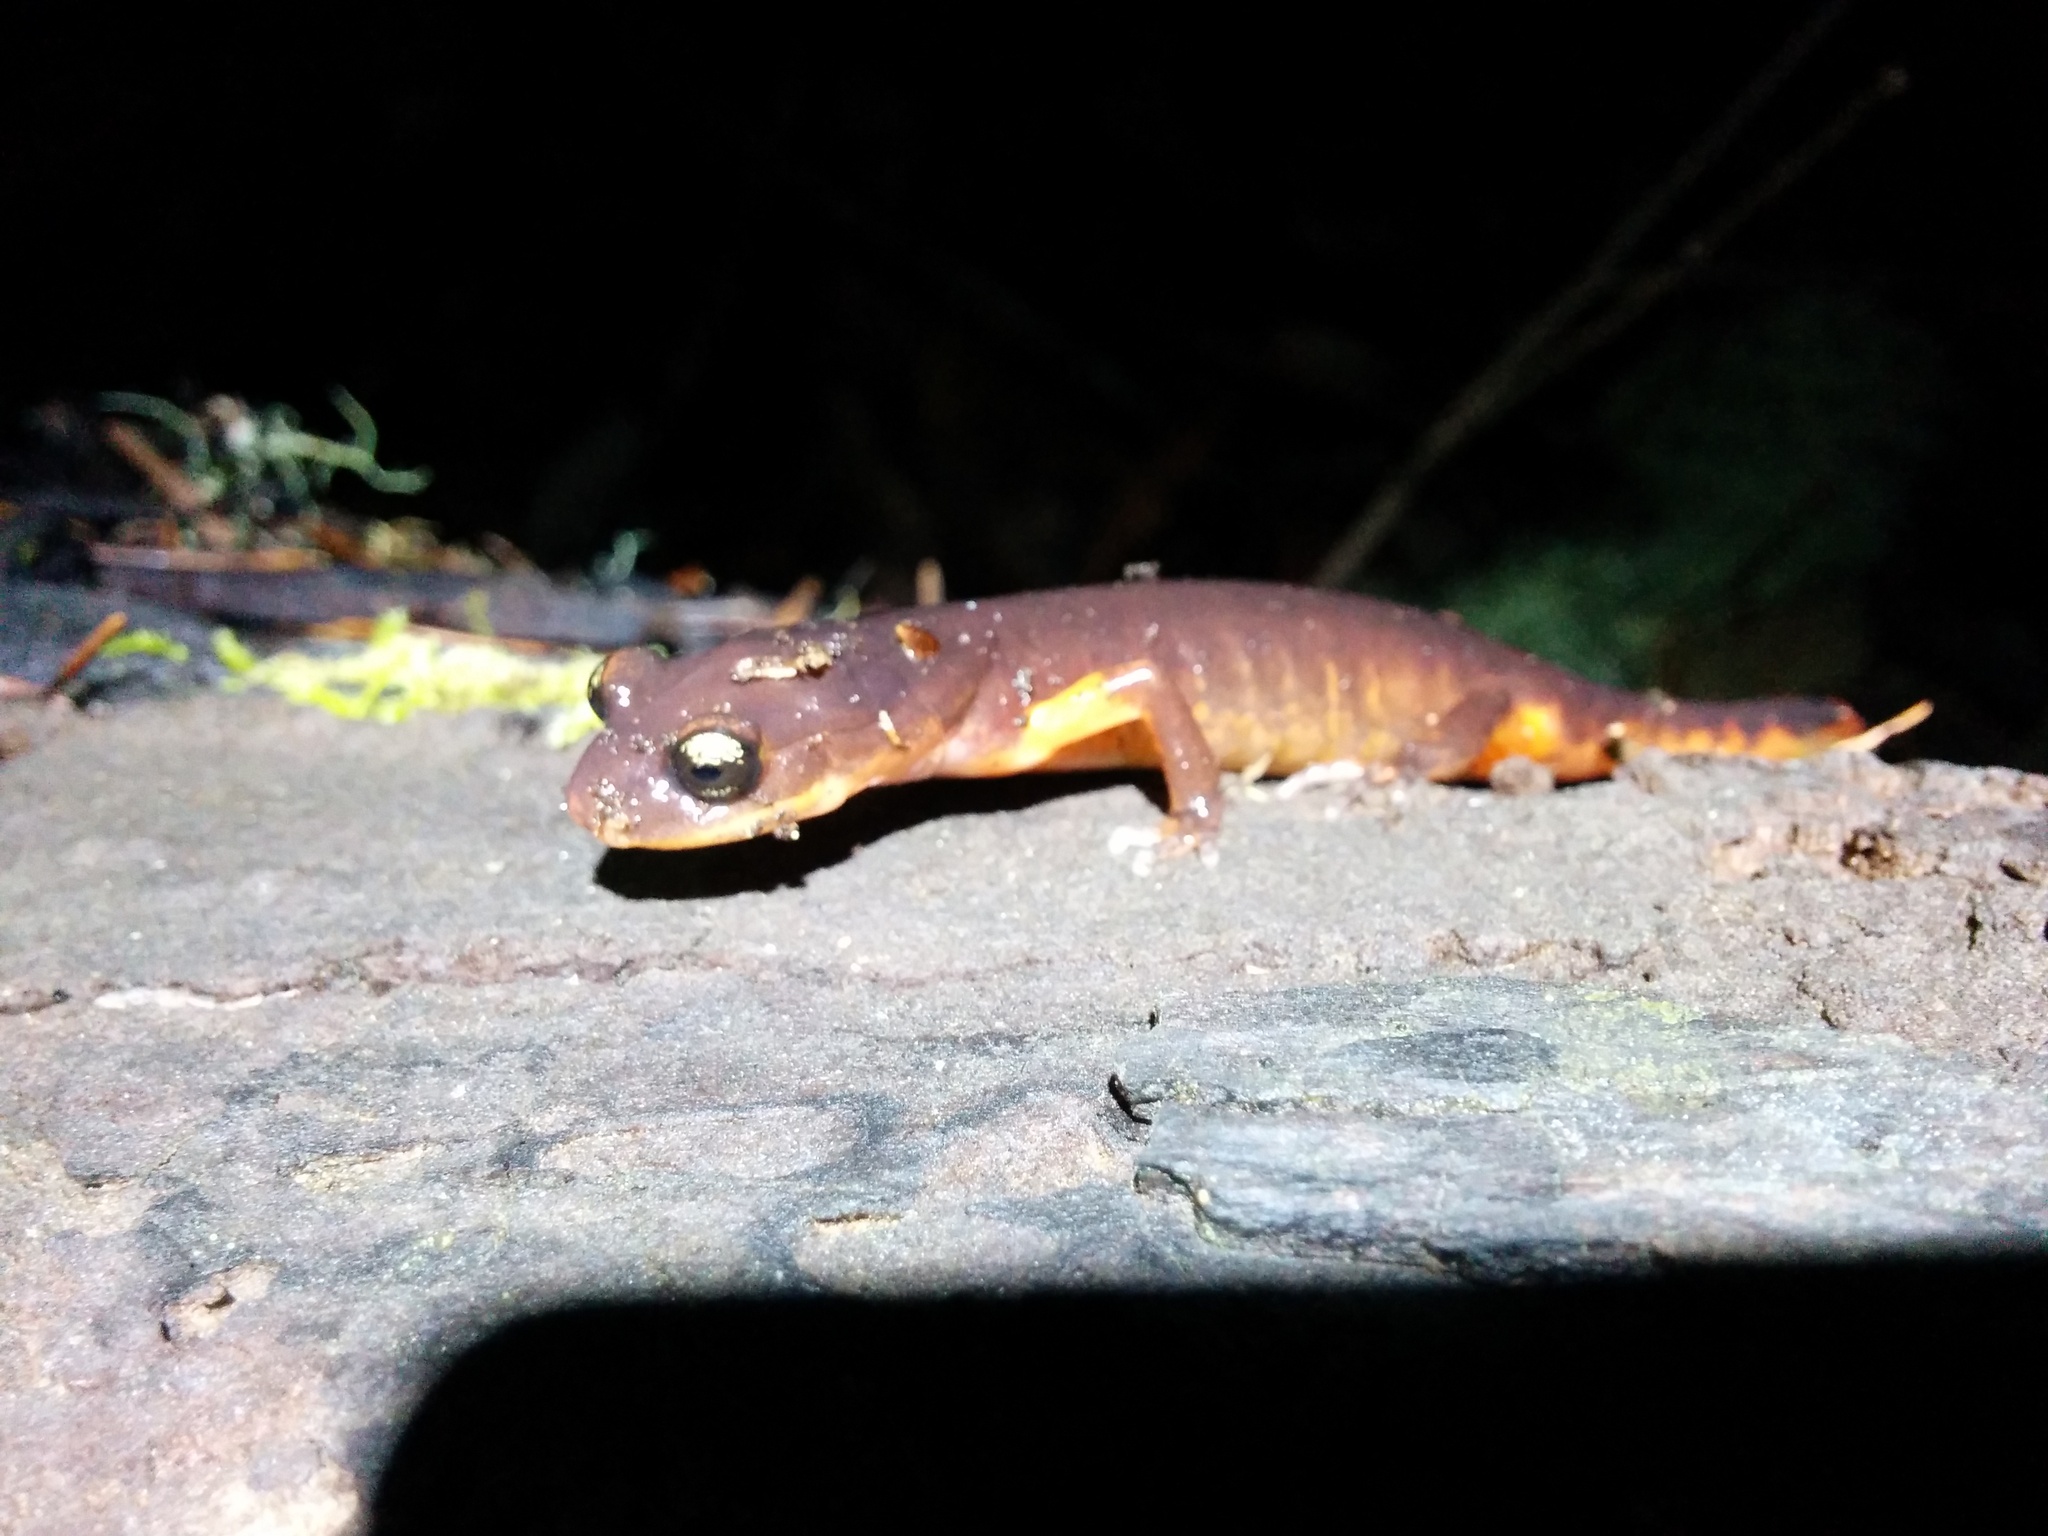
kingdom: Animalia
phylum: Chordata
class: Amphibia
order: Caudata
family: Plethodontidae
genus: Ensatina
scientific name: Ensatina eschscholtzii
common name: Ensatina
